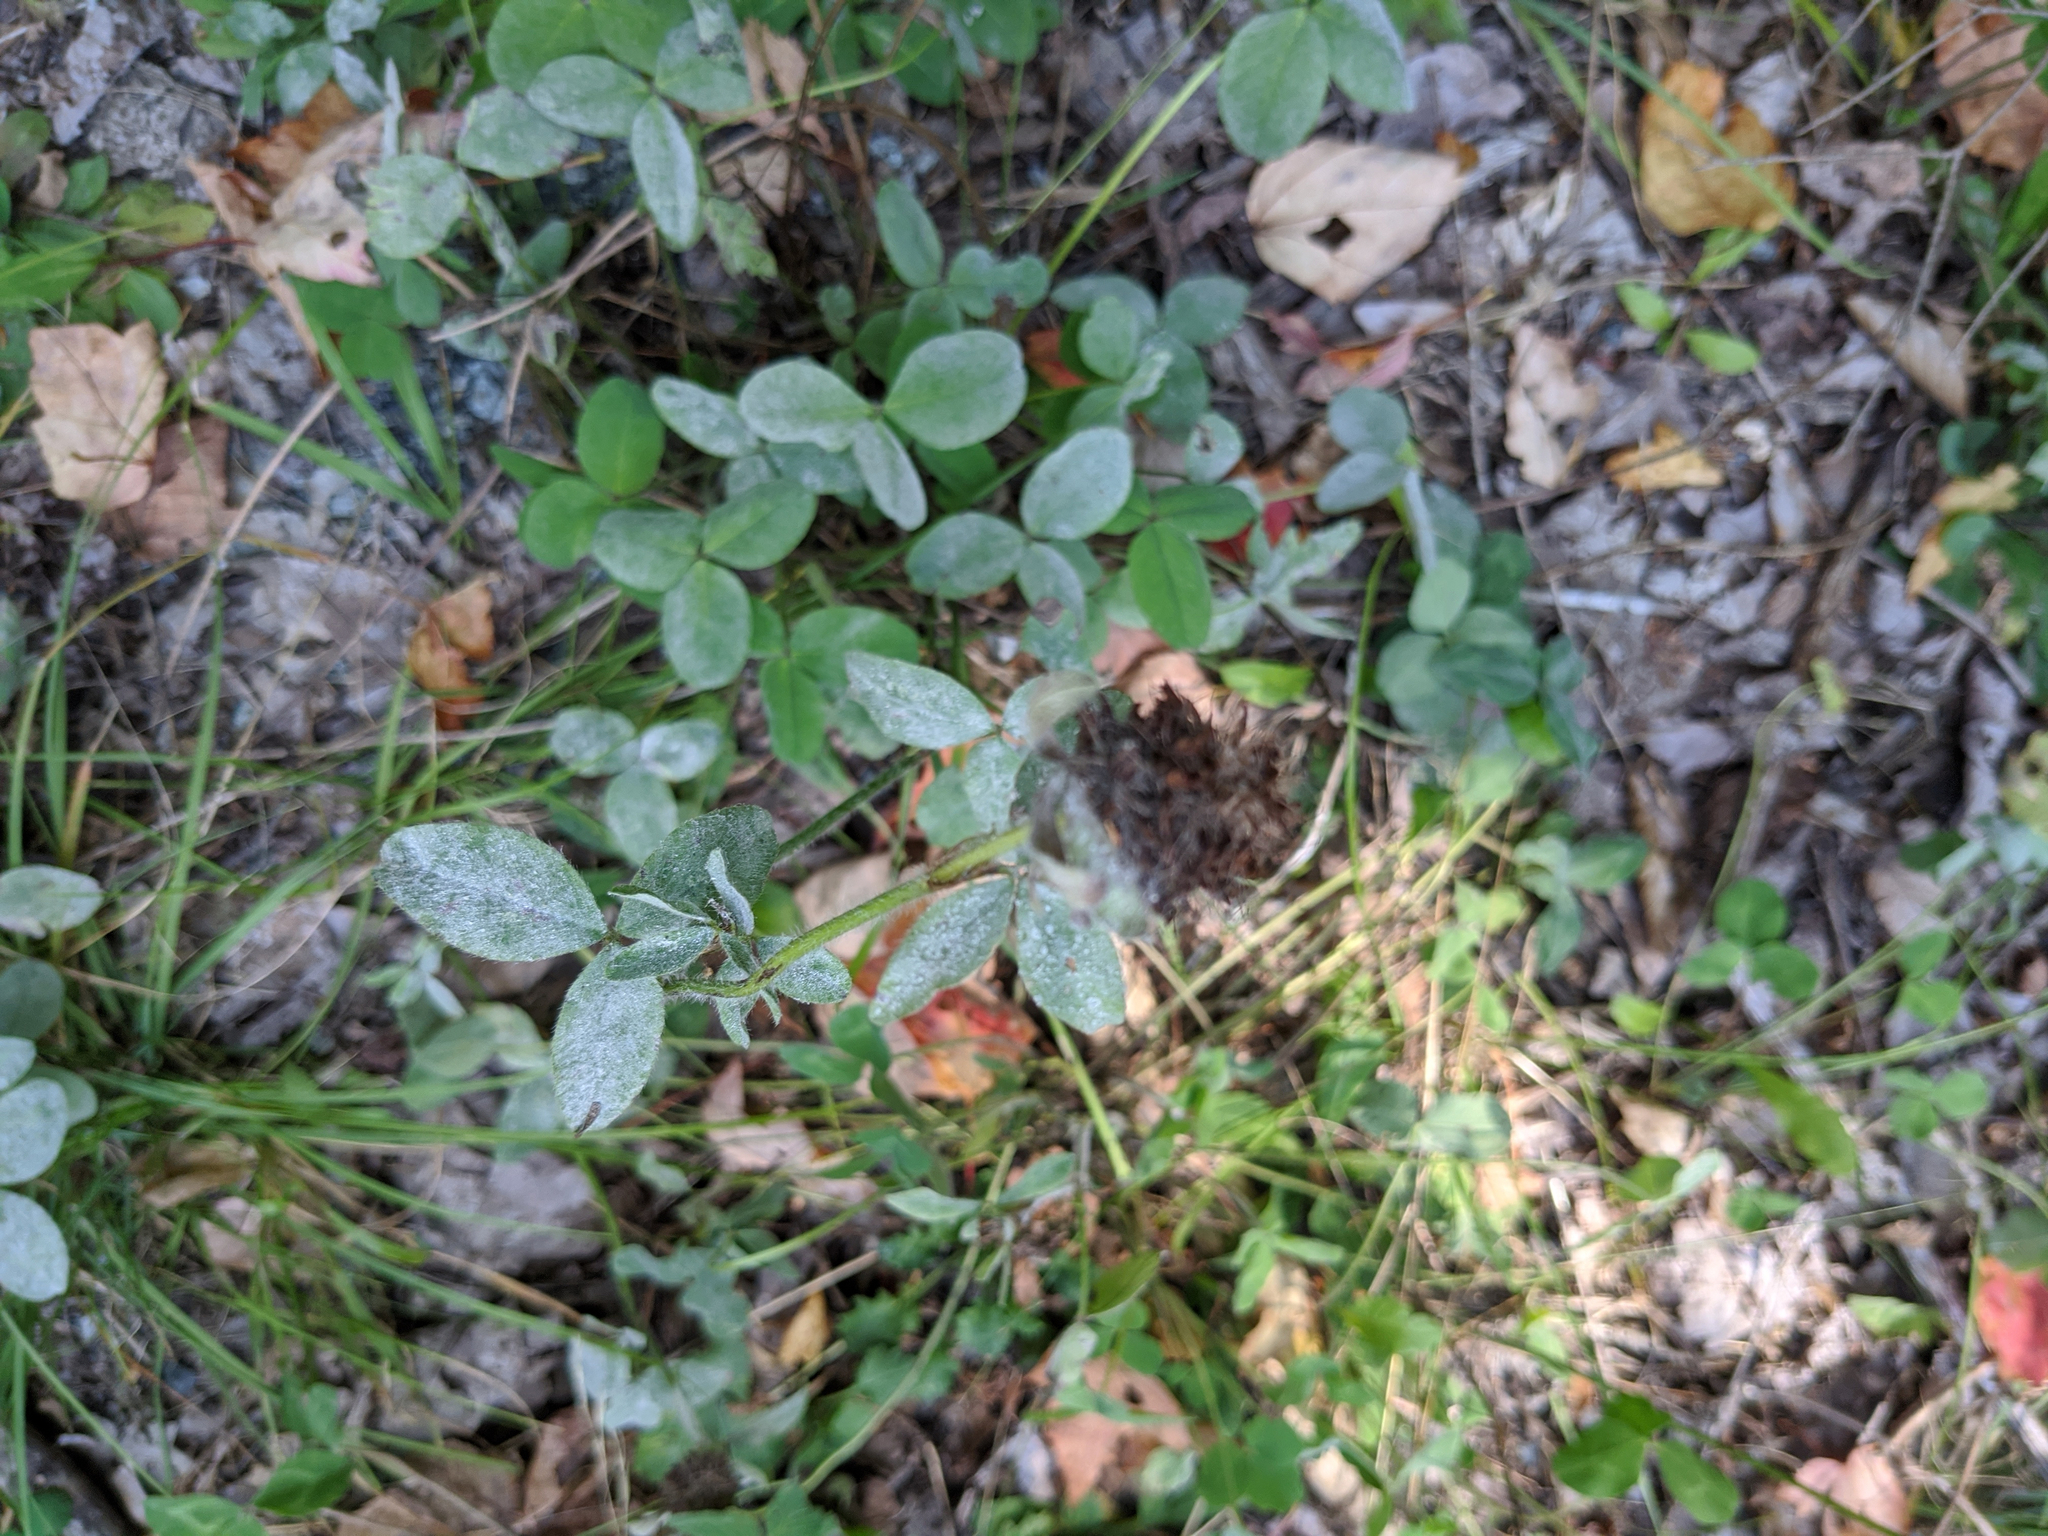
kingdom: Plantae
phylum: Tracheophyta
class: Magnoliopsida
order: Fabales
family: Fabaceae
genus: Trifolium
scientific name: Trifolium pratense
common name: Red clover
